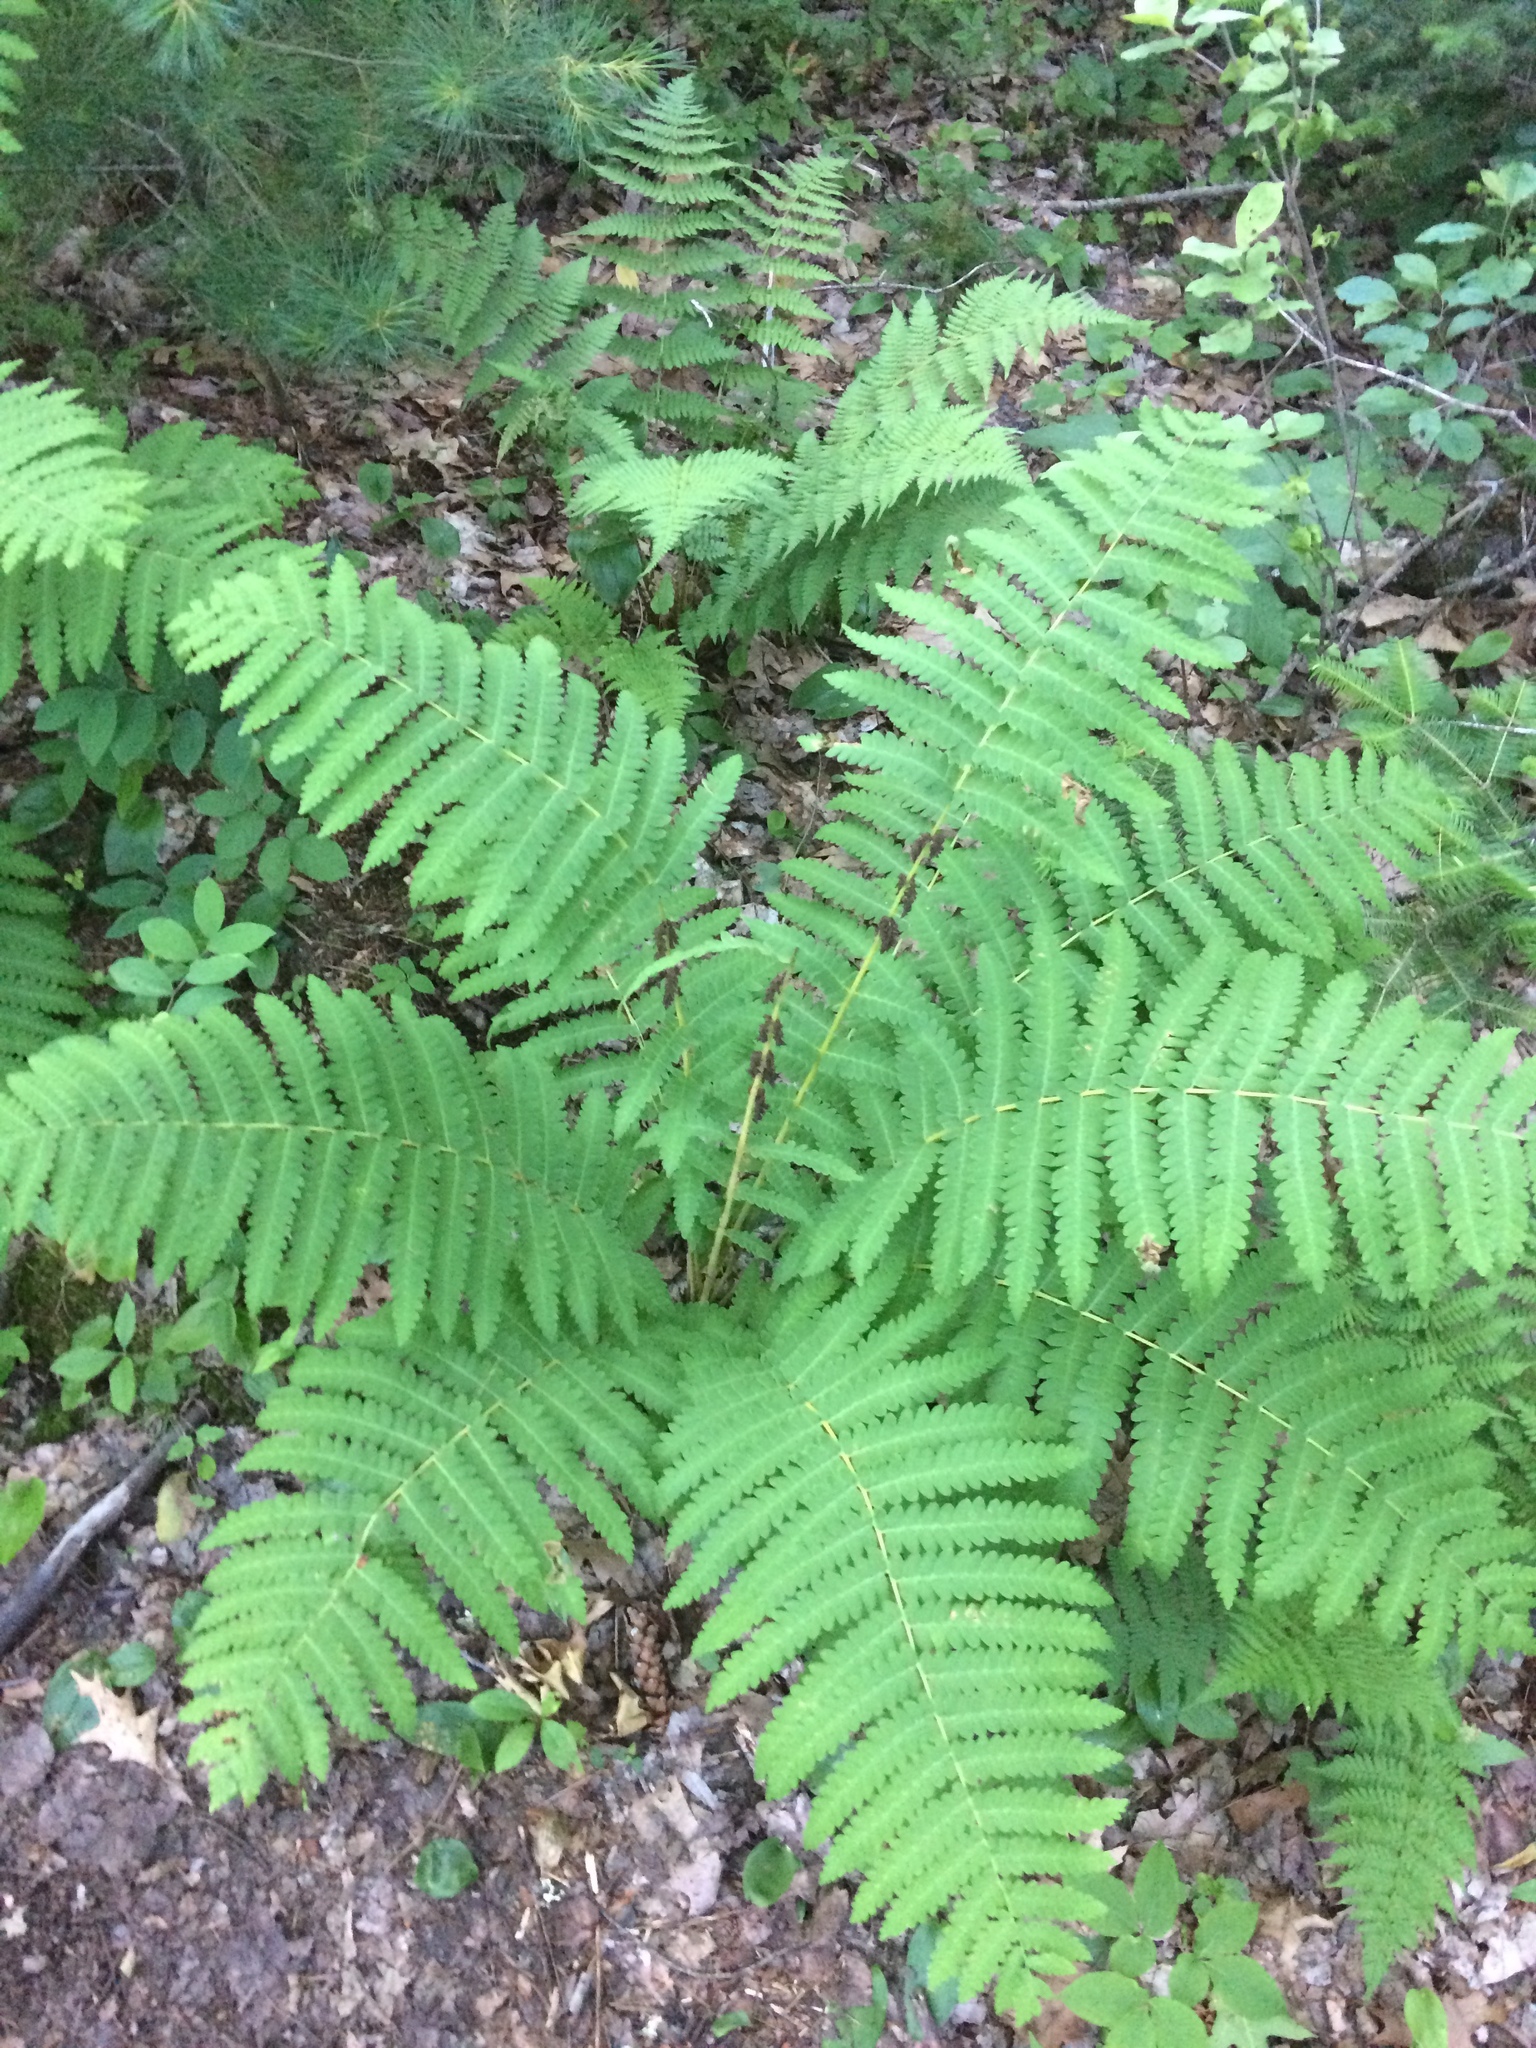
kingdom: Plantae
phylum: Tracheophyta
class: Polypodiopsida
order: Osmundales
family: Osmundaceae
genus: Claytosmunda
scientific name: Claytosmunda claytoniana
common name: Clayton's fern
